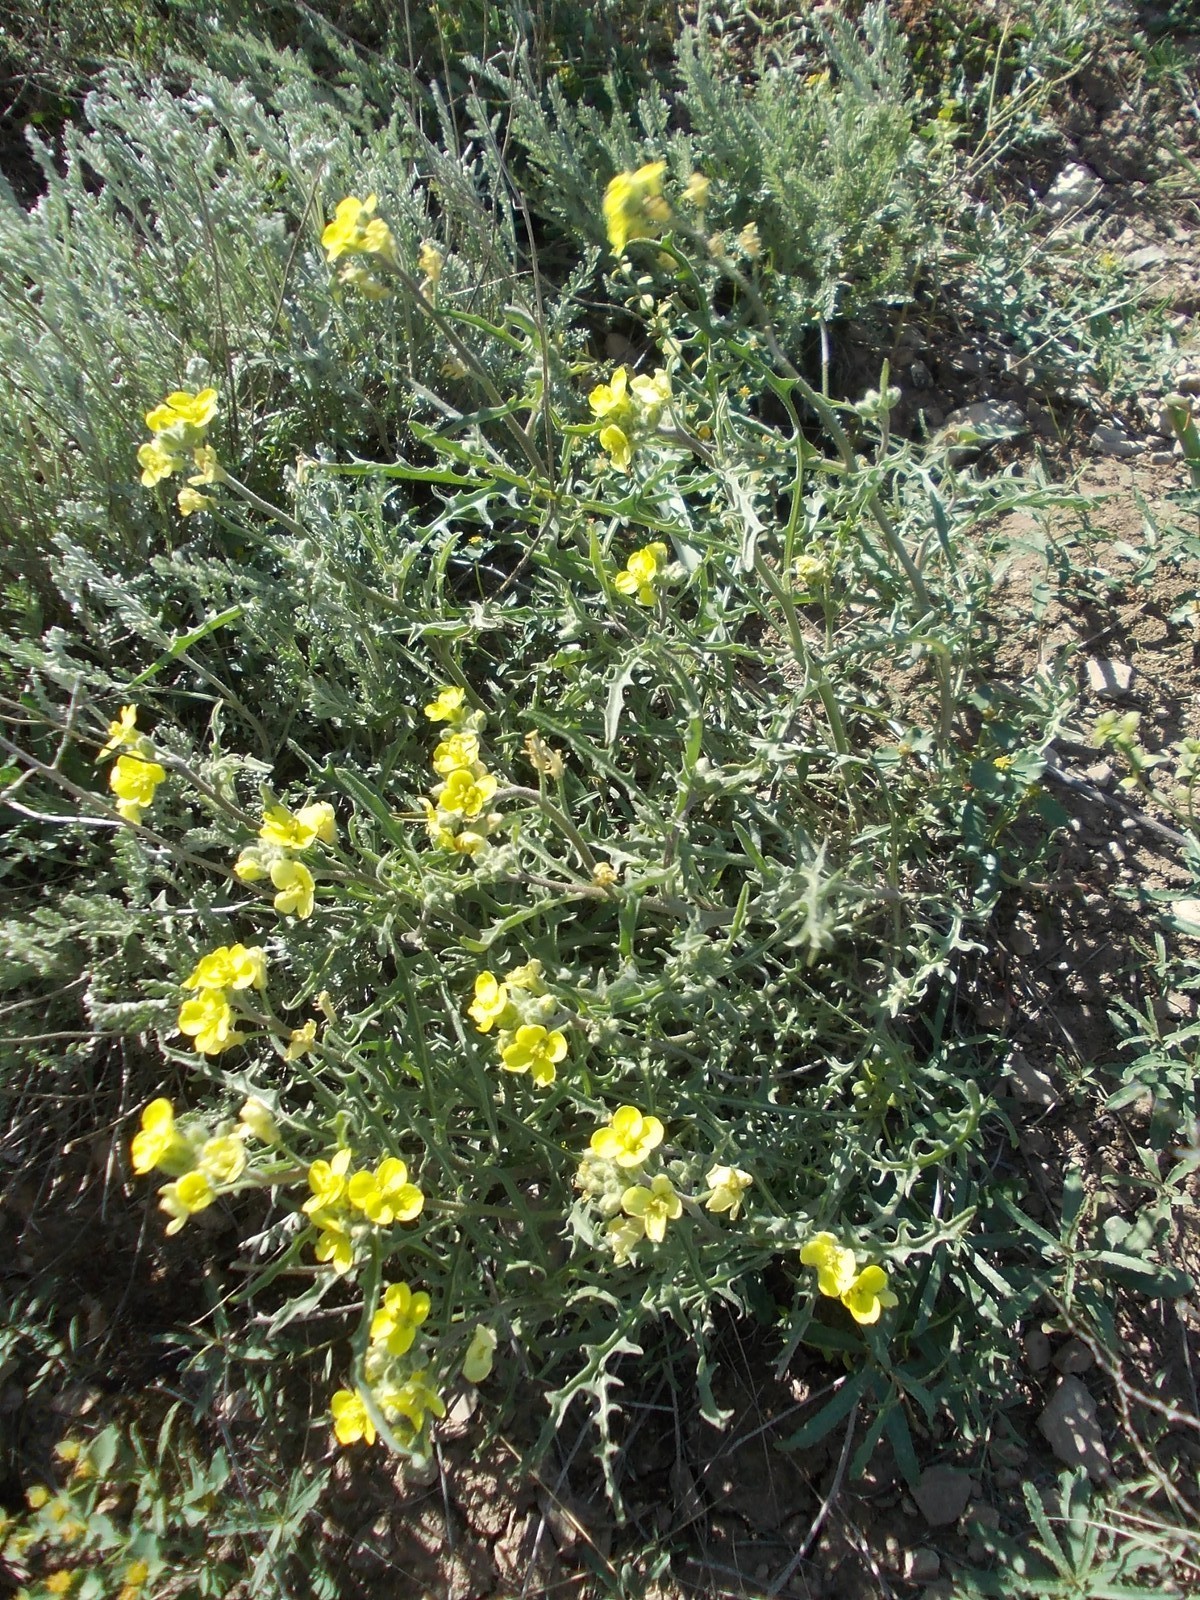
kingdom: Plantae
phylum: Tracheophyta
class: Magnoliopsida
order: Brassicales
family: Brassicaceae
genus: Sterigmostemum
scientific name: Sterigmostemum caspicum
